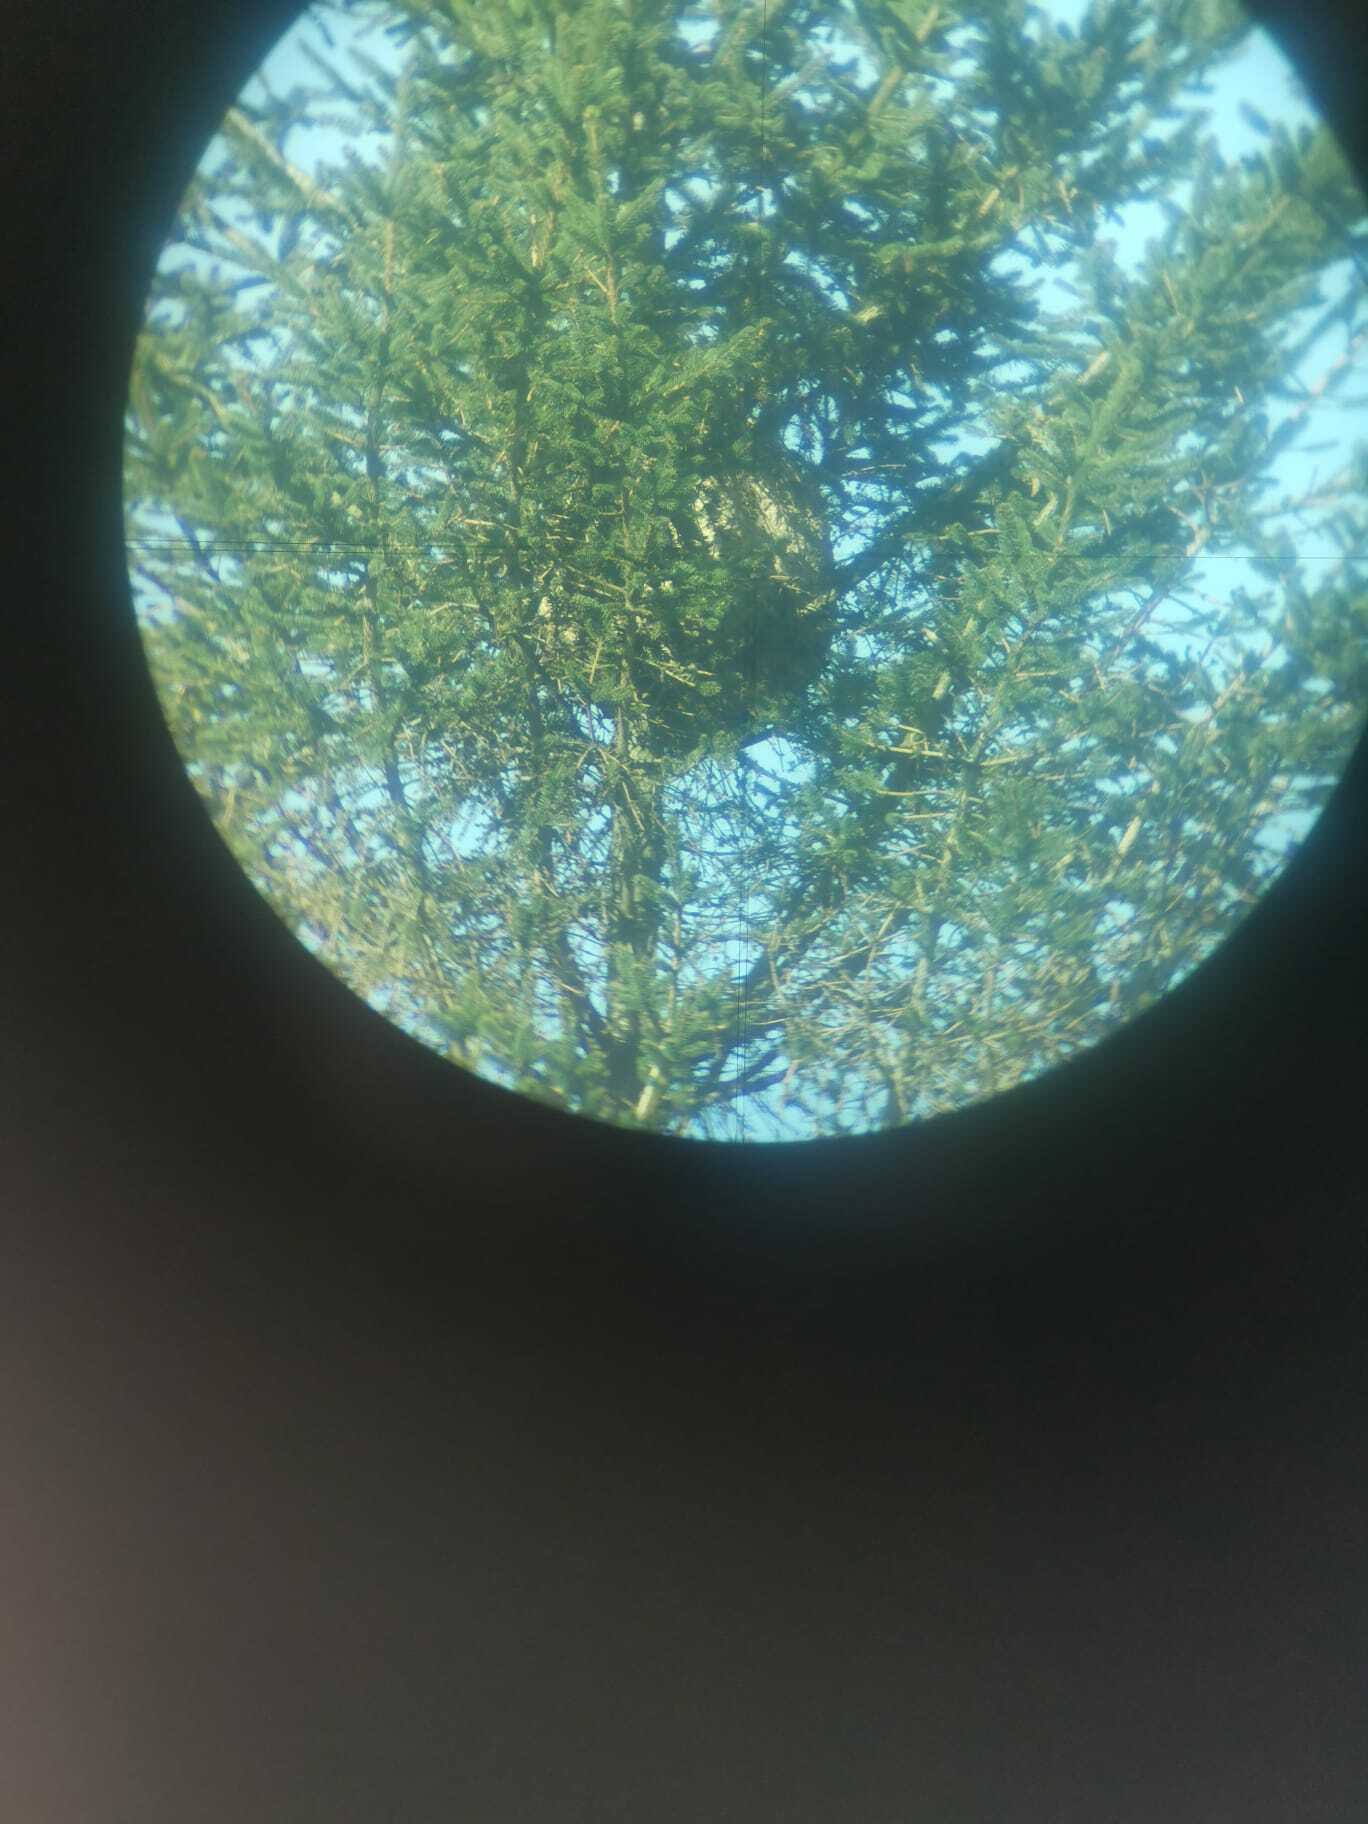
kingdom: Animalia
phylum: Arthropoda
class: Insecta
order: Hymenoptera
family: Vespidae
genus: Vespa
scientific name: Vespa velutina
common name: Asian hornet
